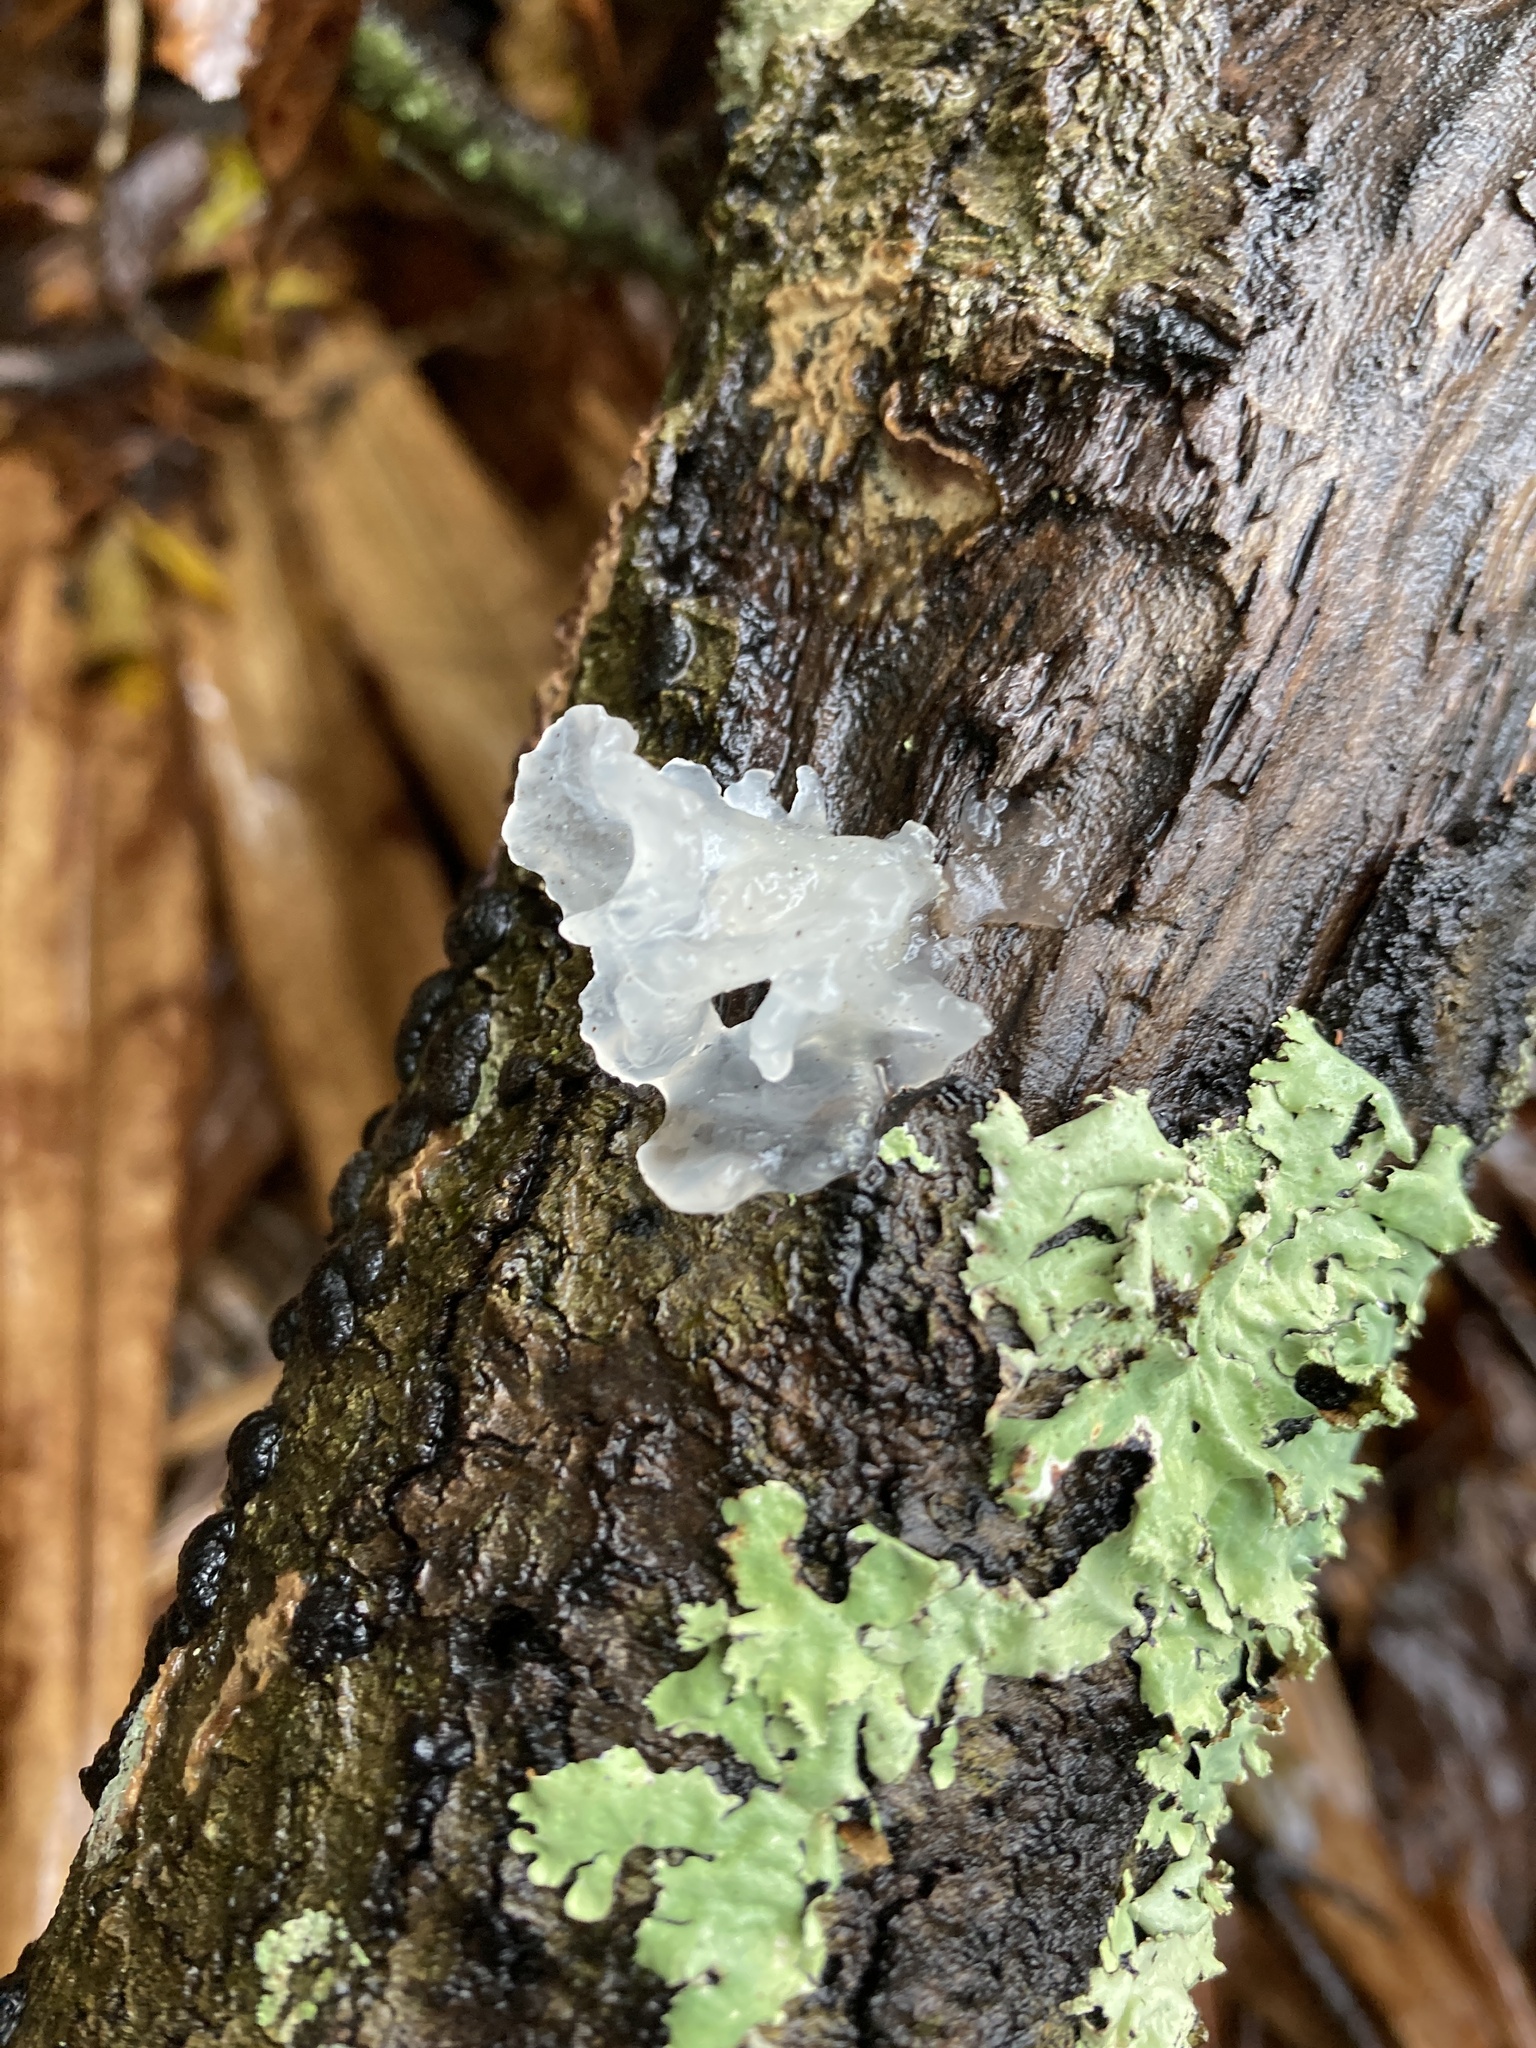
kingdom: Fungi
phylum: Basidiomycota
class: Tremellomycetes
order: Tremellales
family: Tremellaceae
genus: Tremella
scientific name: Tremella fuciformis
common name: Snow fungus
